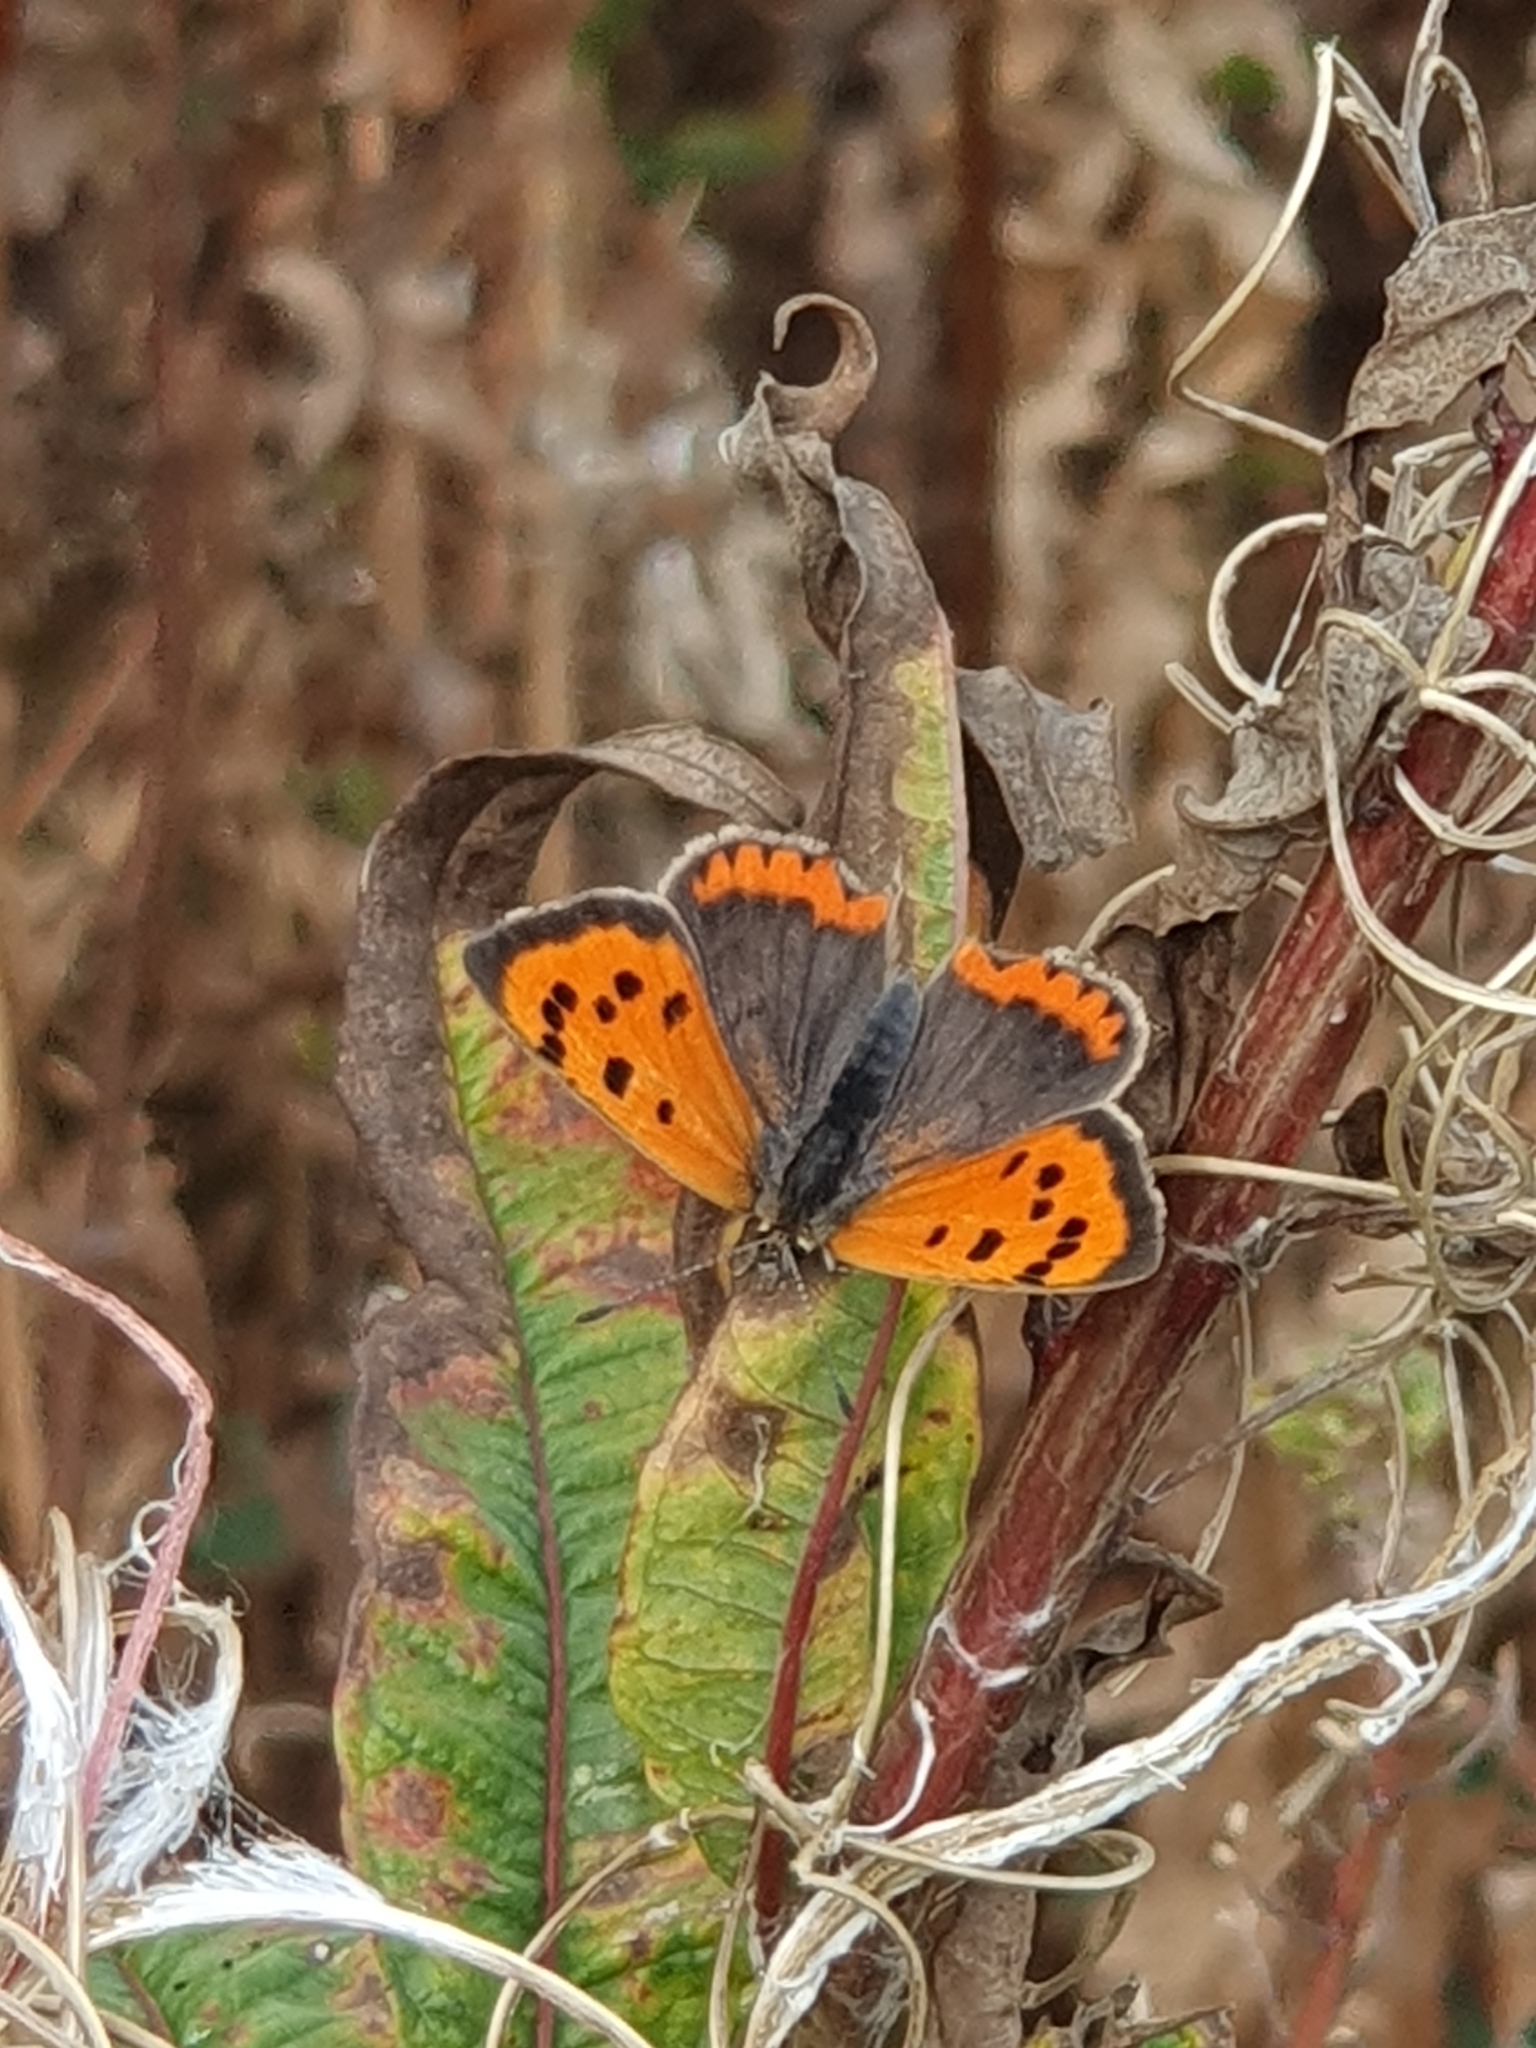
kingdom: Animalia
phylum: Arthropoda
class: Insecta
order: Lepidoptera
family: Lycaenidae
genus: Lycaena
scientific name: Lycaena phlaeas
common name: Small copper
